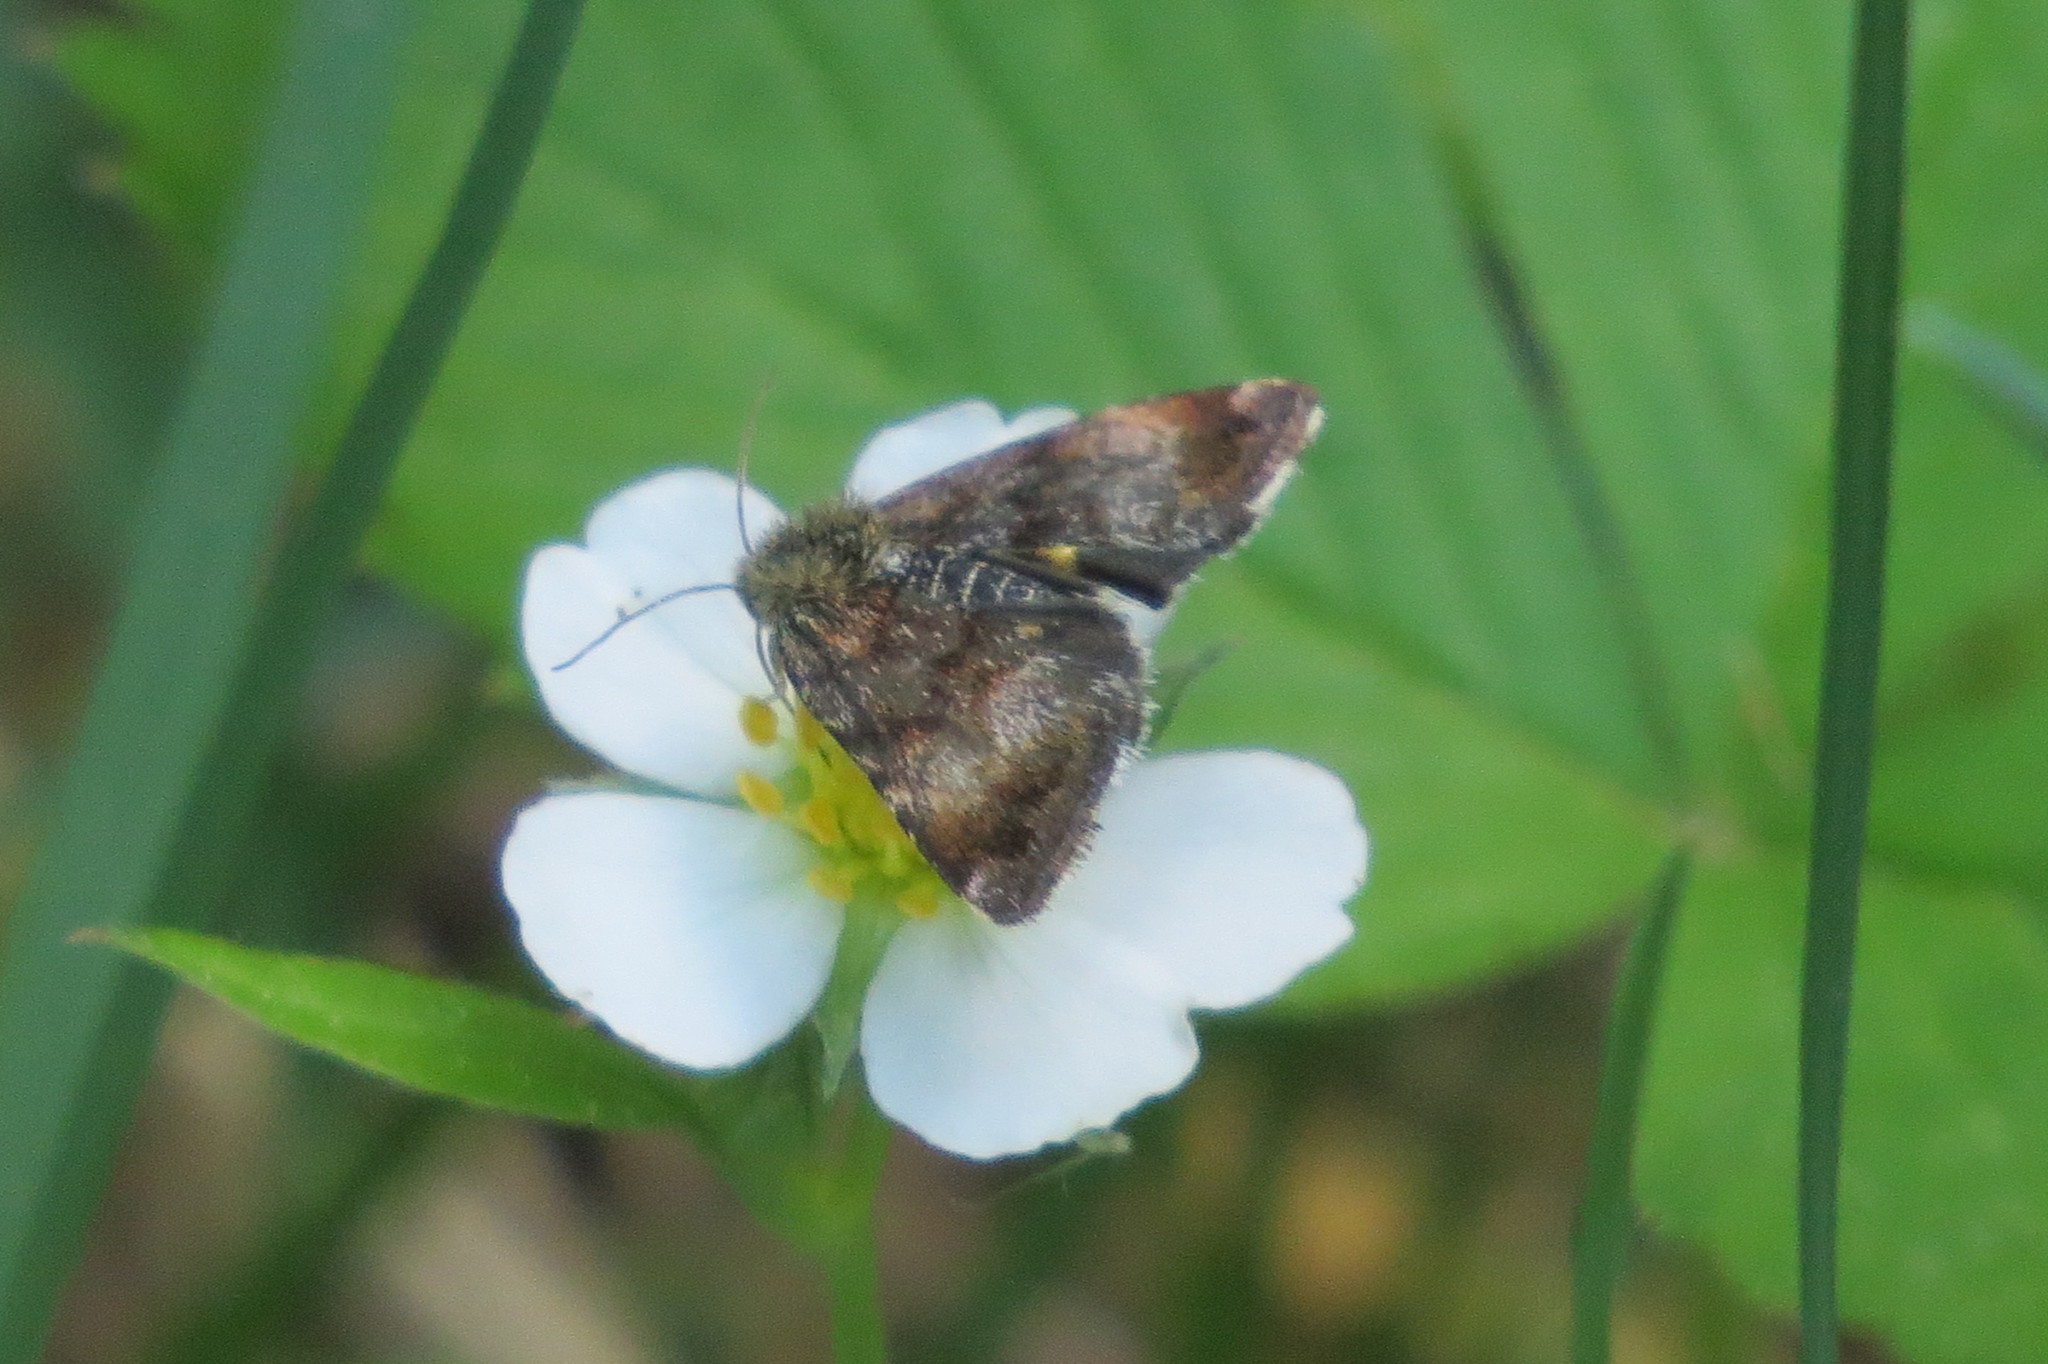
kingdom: Animalia
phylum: Arthropoda
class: Insecta
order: Lepidoptera
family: Noctuidae
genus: Panemeria
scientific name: Panemeria tenebrata
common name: Small yellow underwing
